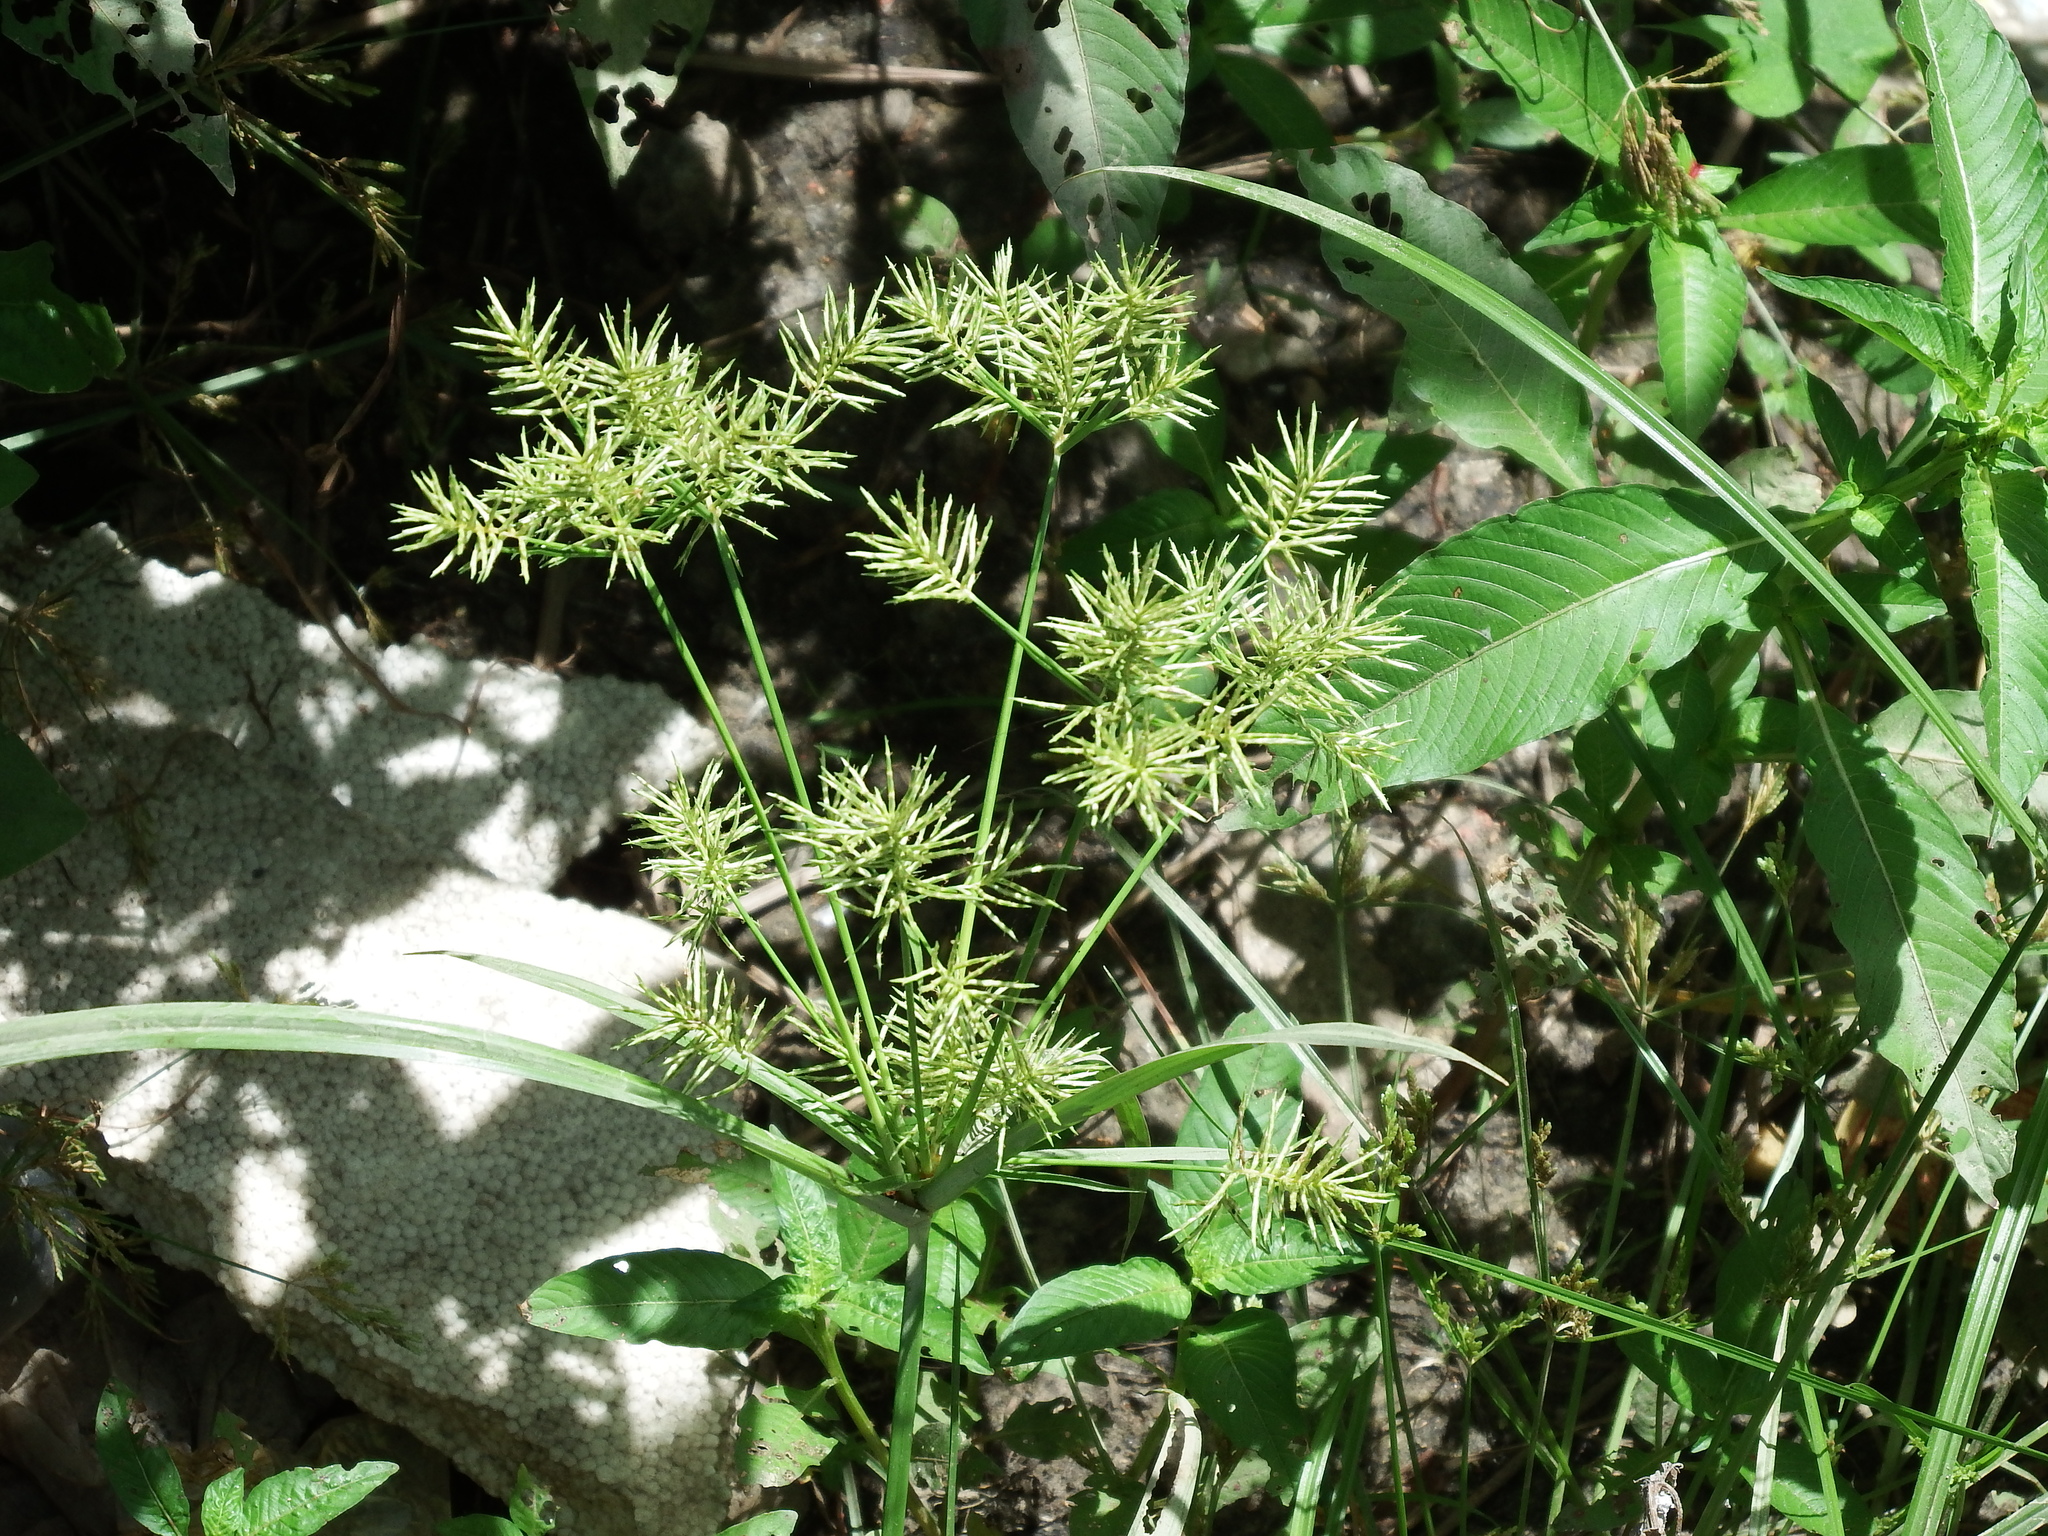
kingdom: Plantae
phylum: Tracheophyta
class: Liliopsida
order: Poales
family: Cyperaceae
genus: Cyperus
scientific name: Cyperus odoratus
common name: Fragrant flatsedge
